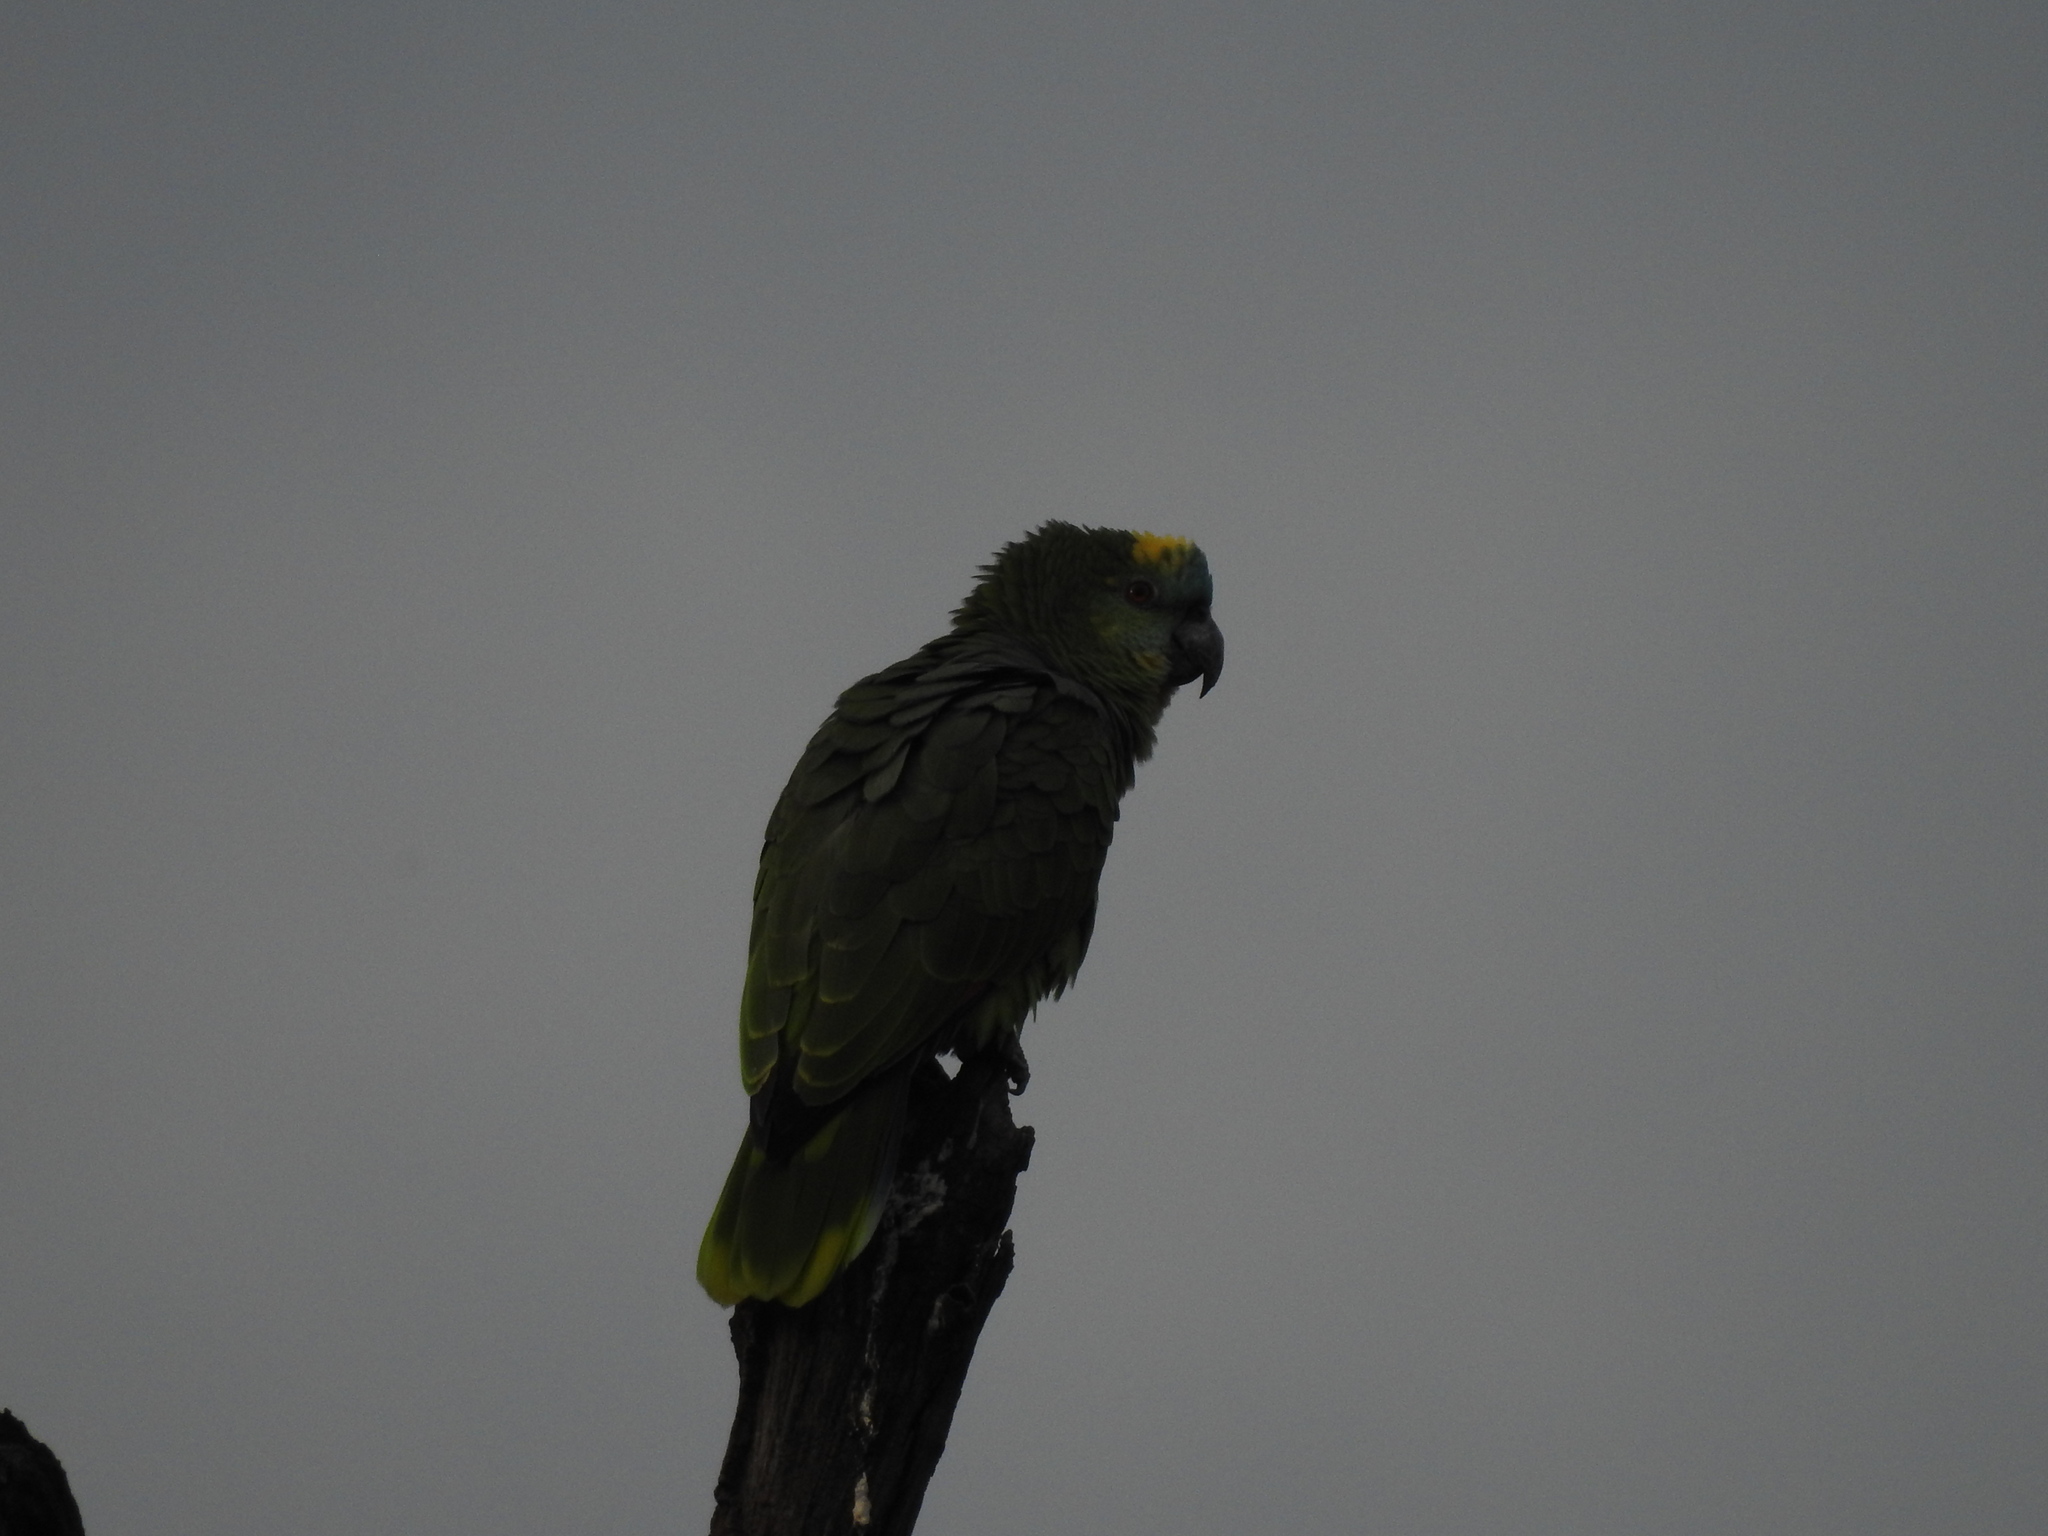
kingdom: Animalia
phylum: Chordata
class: Aves
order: Psittaciformes
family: Psittacidae
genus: Amazona
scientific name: Amazona aestiva
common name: Turquoise-fronted amazon
